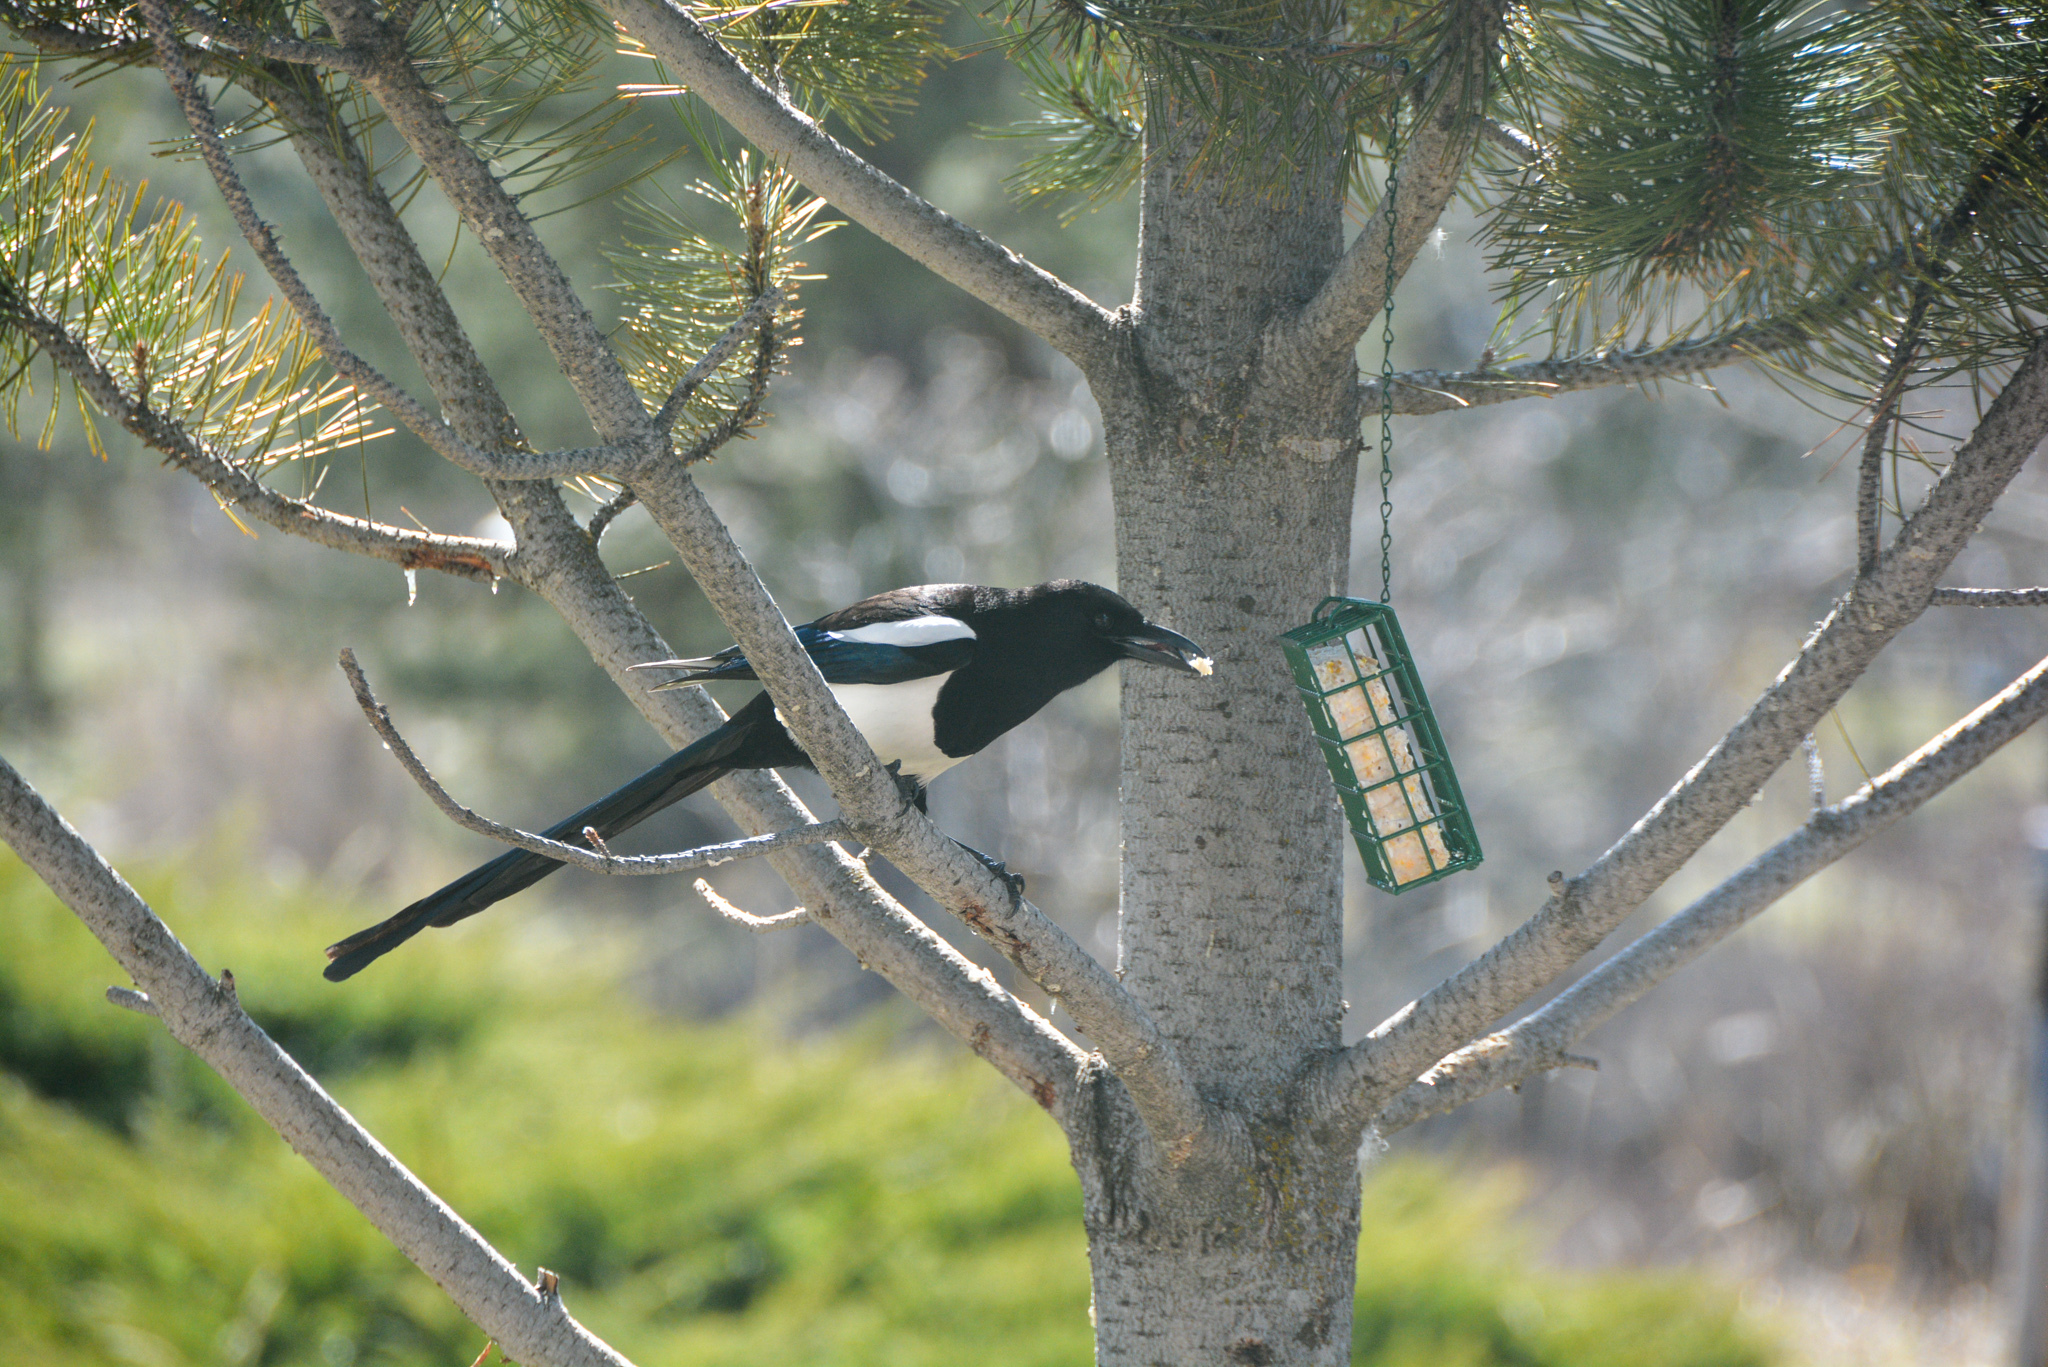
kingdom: Animalia
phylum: Chordata
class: Aves
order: Passeriformes
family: Corvidae
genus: Pica
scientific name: Pica hudsonia
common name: Black-billed magpie
